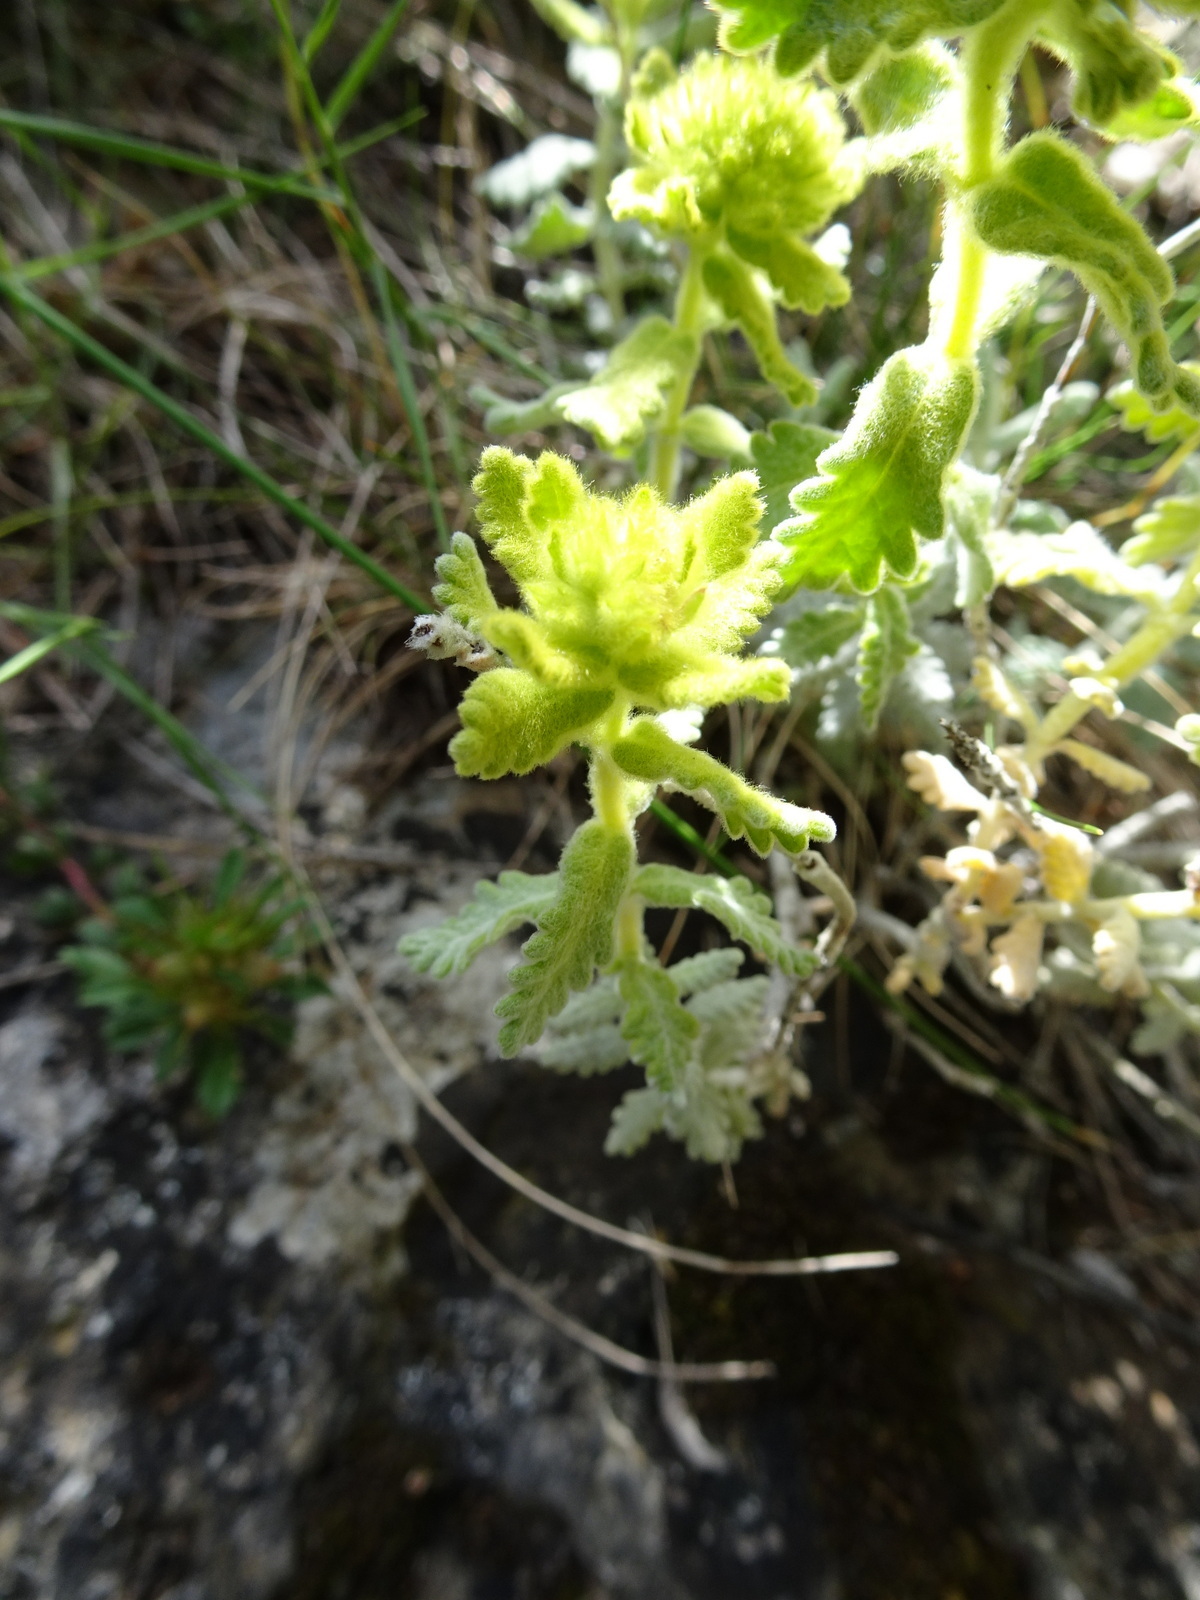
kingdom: Plantae
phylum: Tracheophyta
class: Magnoliopsida
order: Lamiales
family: Lamiaceae
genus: Teucrium
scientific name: Teucrium aureum
